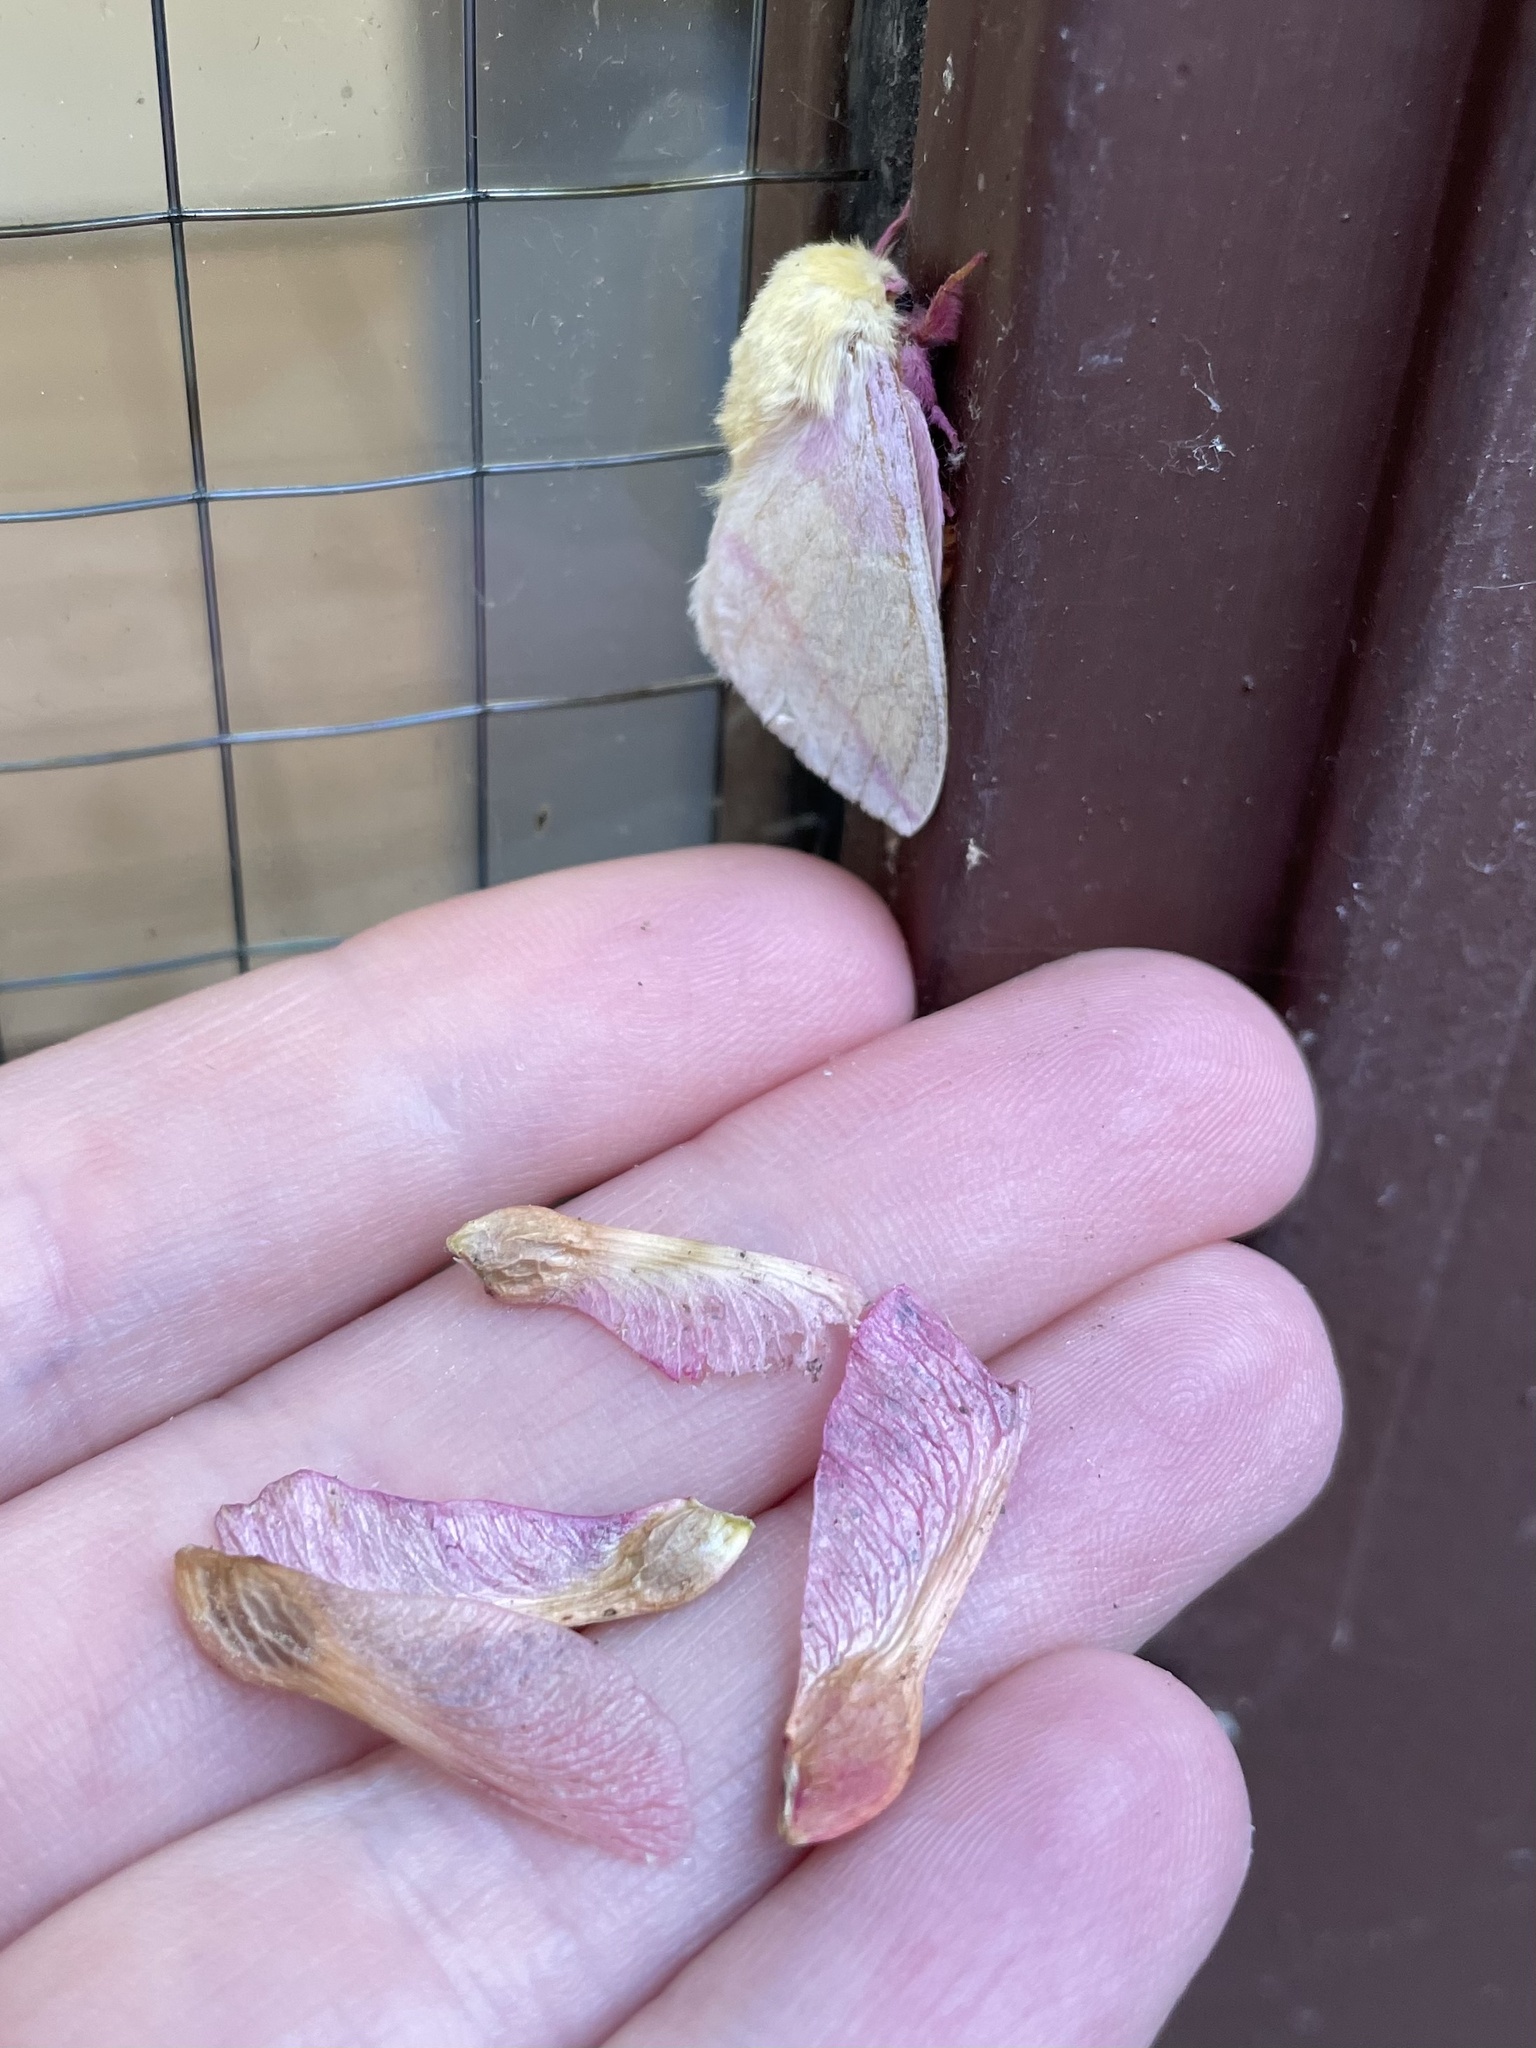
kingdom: Animalia
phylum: Arthropoda
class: Insecta
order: Lepidoptera
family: Saturniidae
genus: Dryocampa
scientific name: Dryocampa rubicunda
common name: Rosy maple moth
